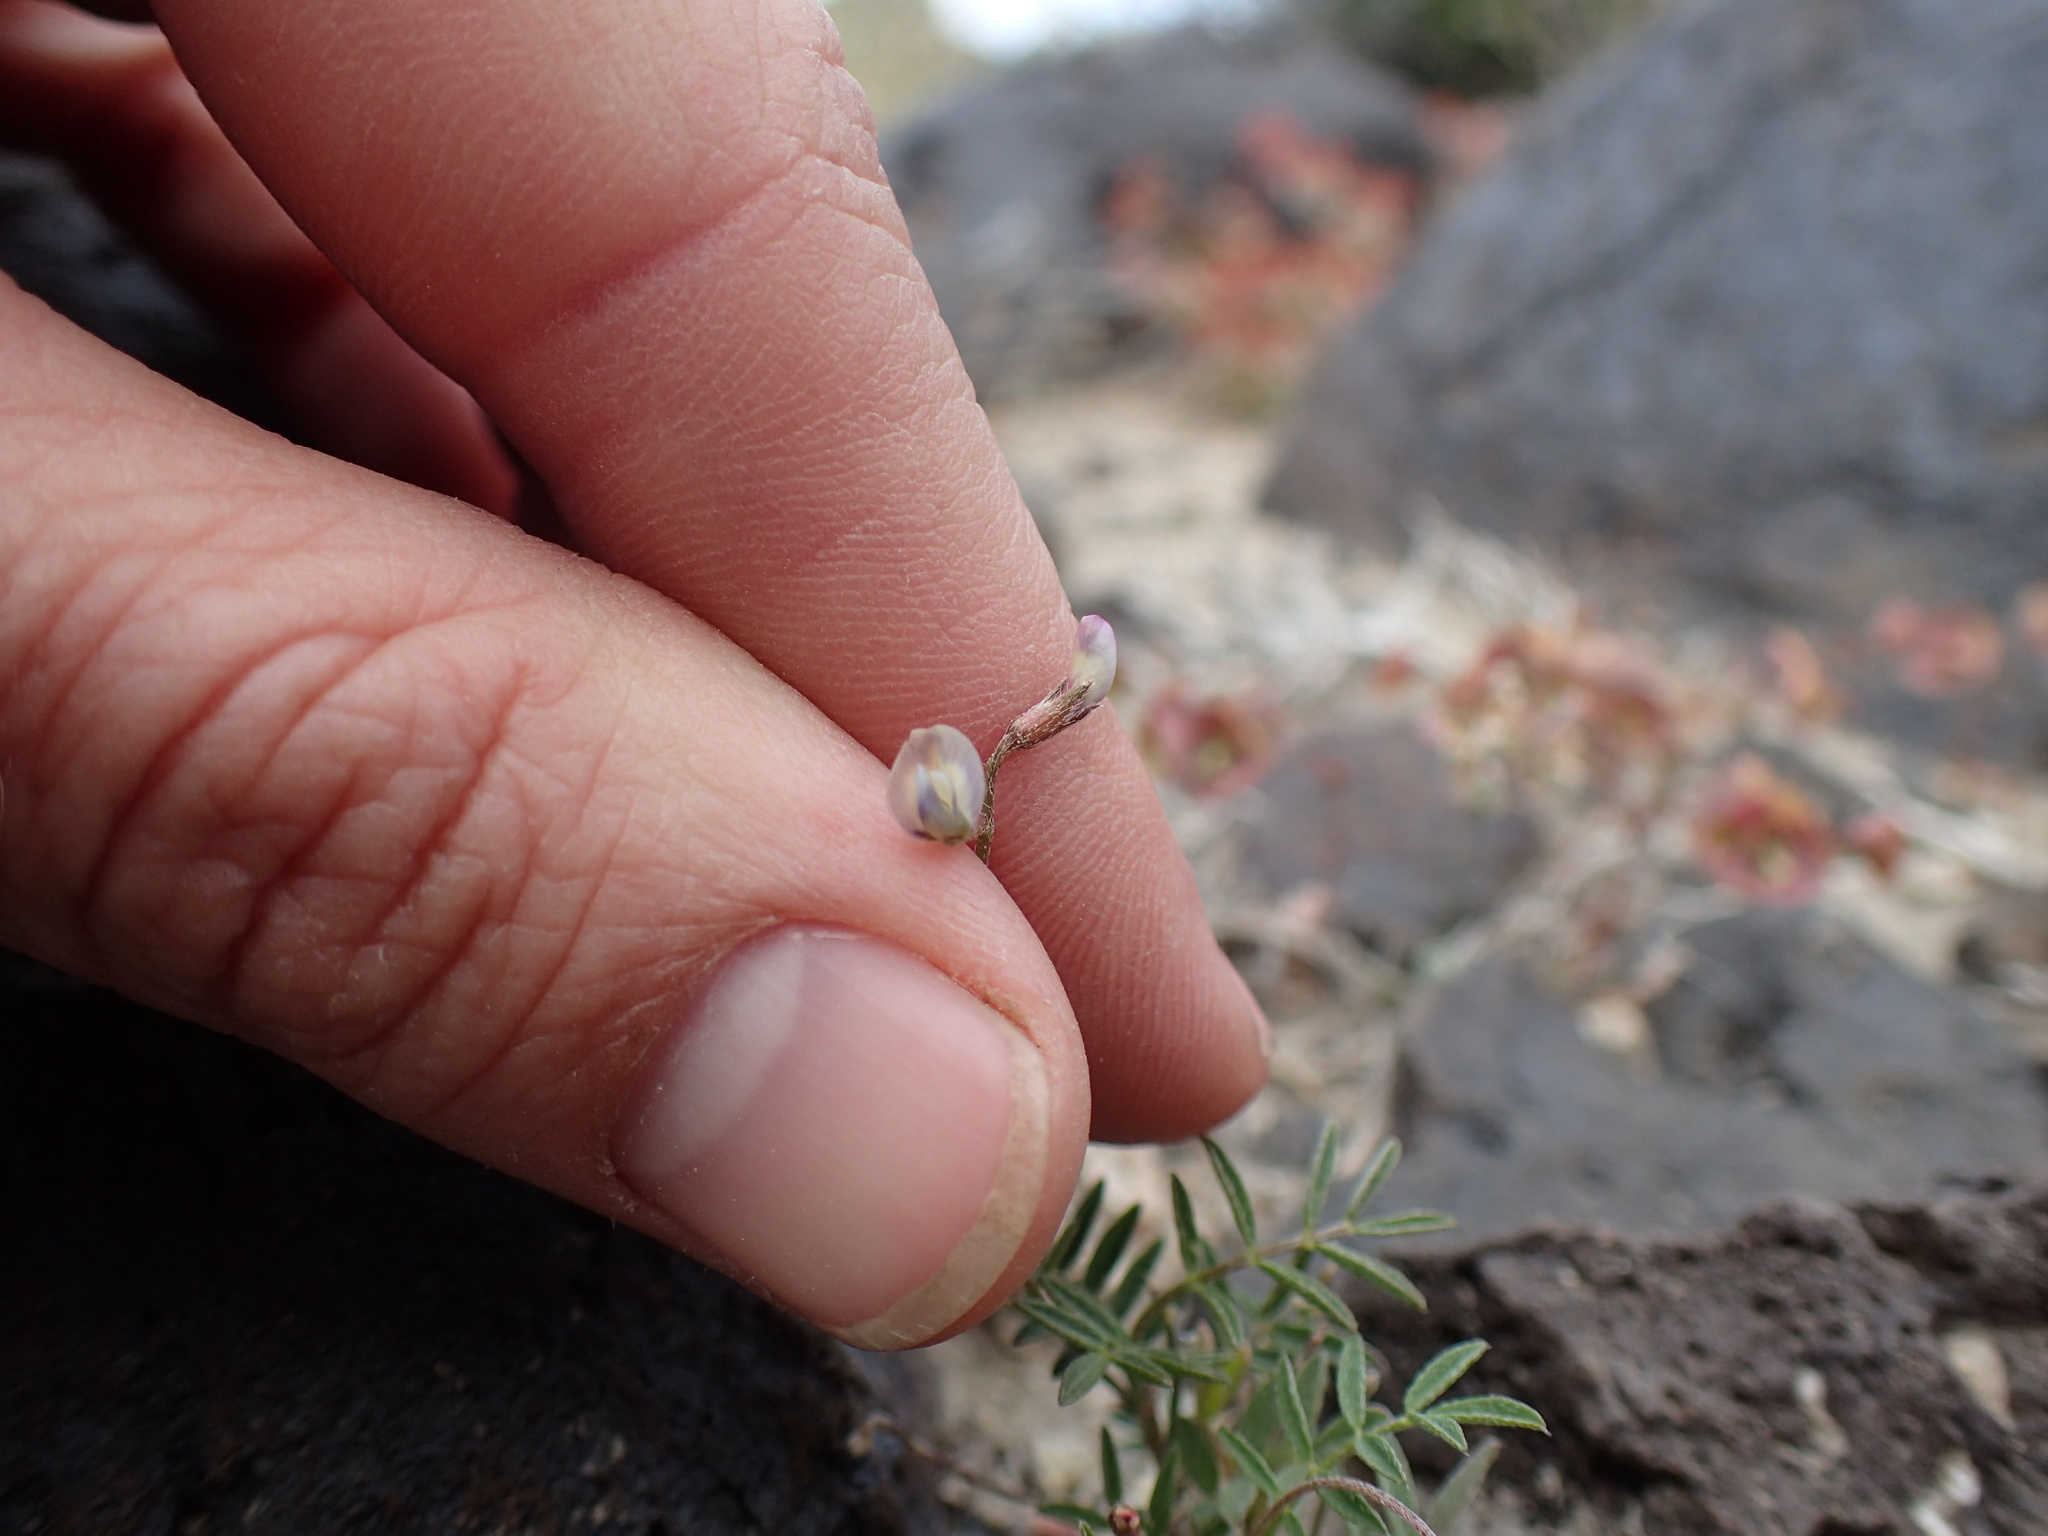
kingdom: Plantae
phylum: Tracheophyta
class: Magnoliopsida
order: Fabales
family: Fabaceae
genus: Astragalus
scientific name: Astragalus nuttallianus
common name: Smallflowered milkvetch
